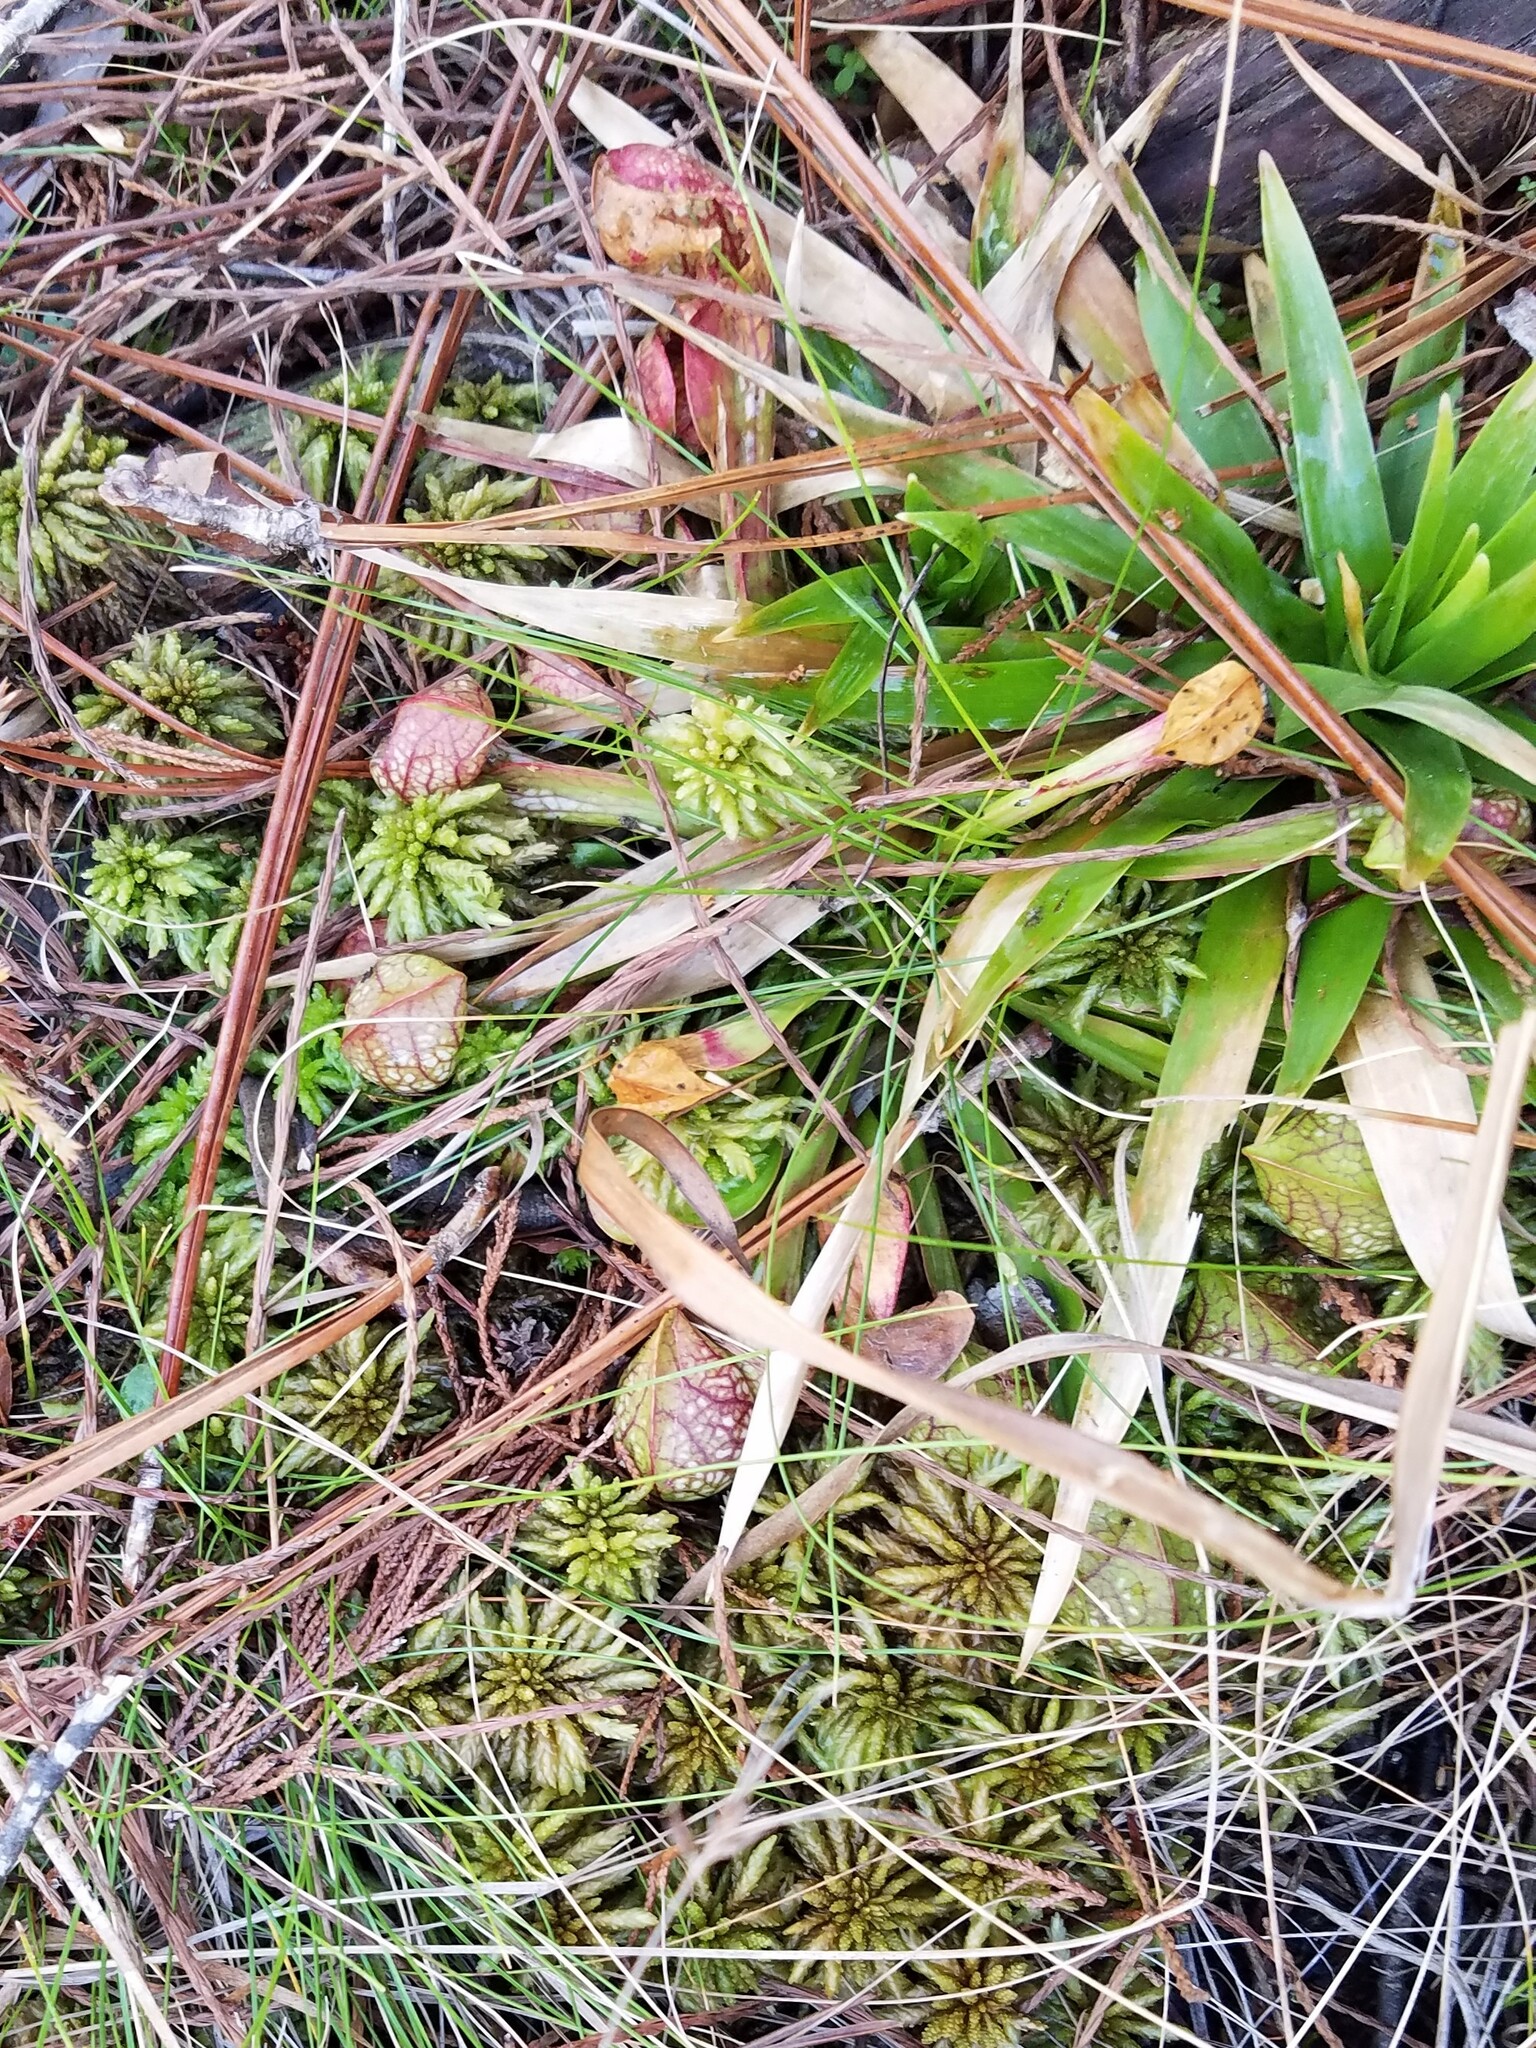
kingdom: Plantae
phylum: Tracheophyta
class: Magnoliopsida
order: Ericales
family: Sarraceniaceae
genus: Sarracenia
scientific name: Sarracenia psittacina
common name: Parrot pitcherplant
